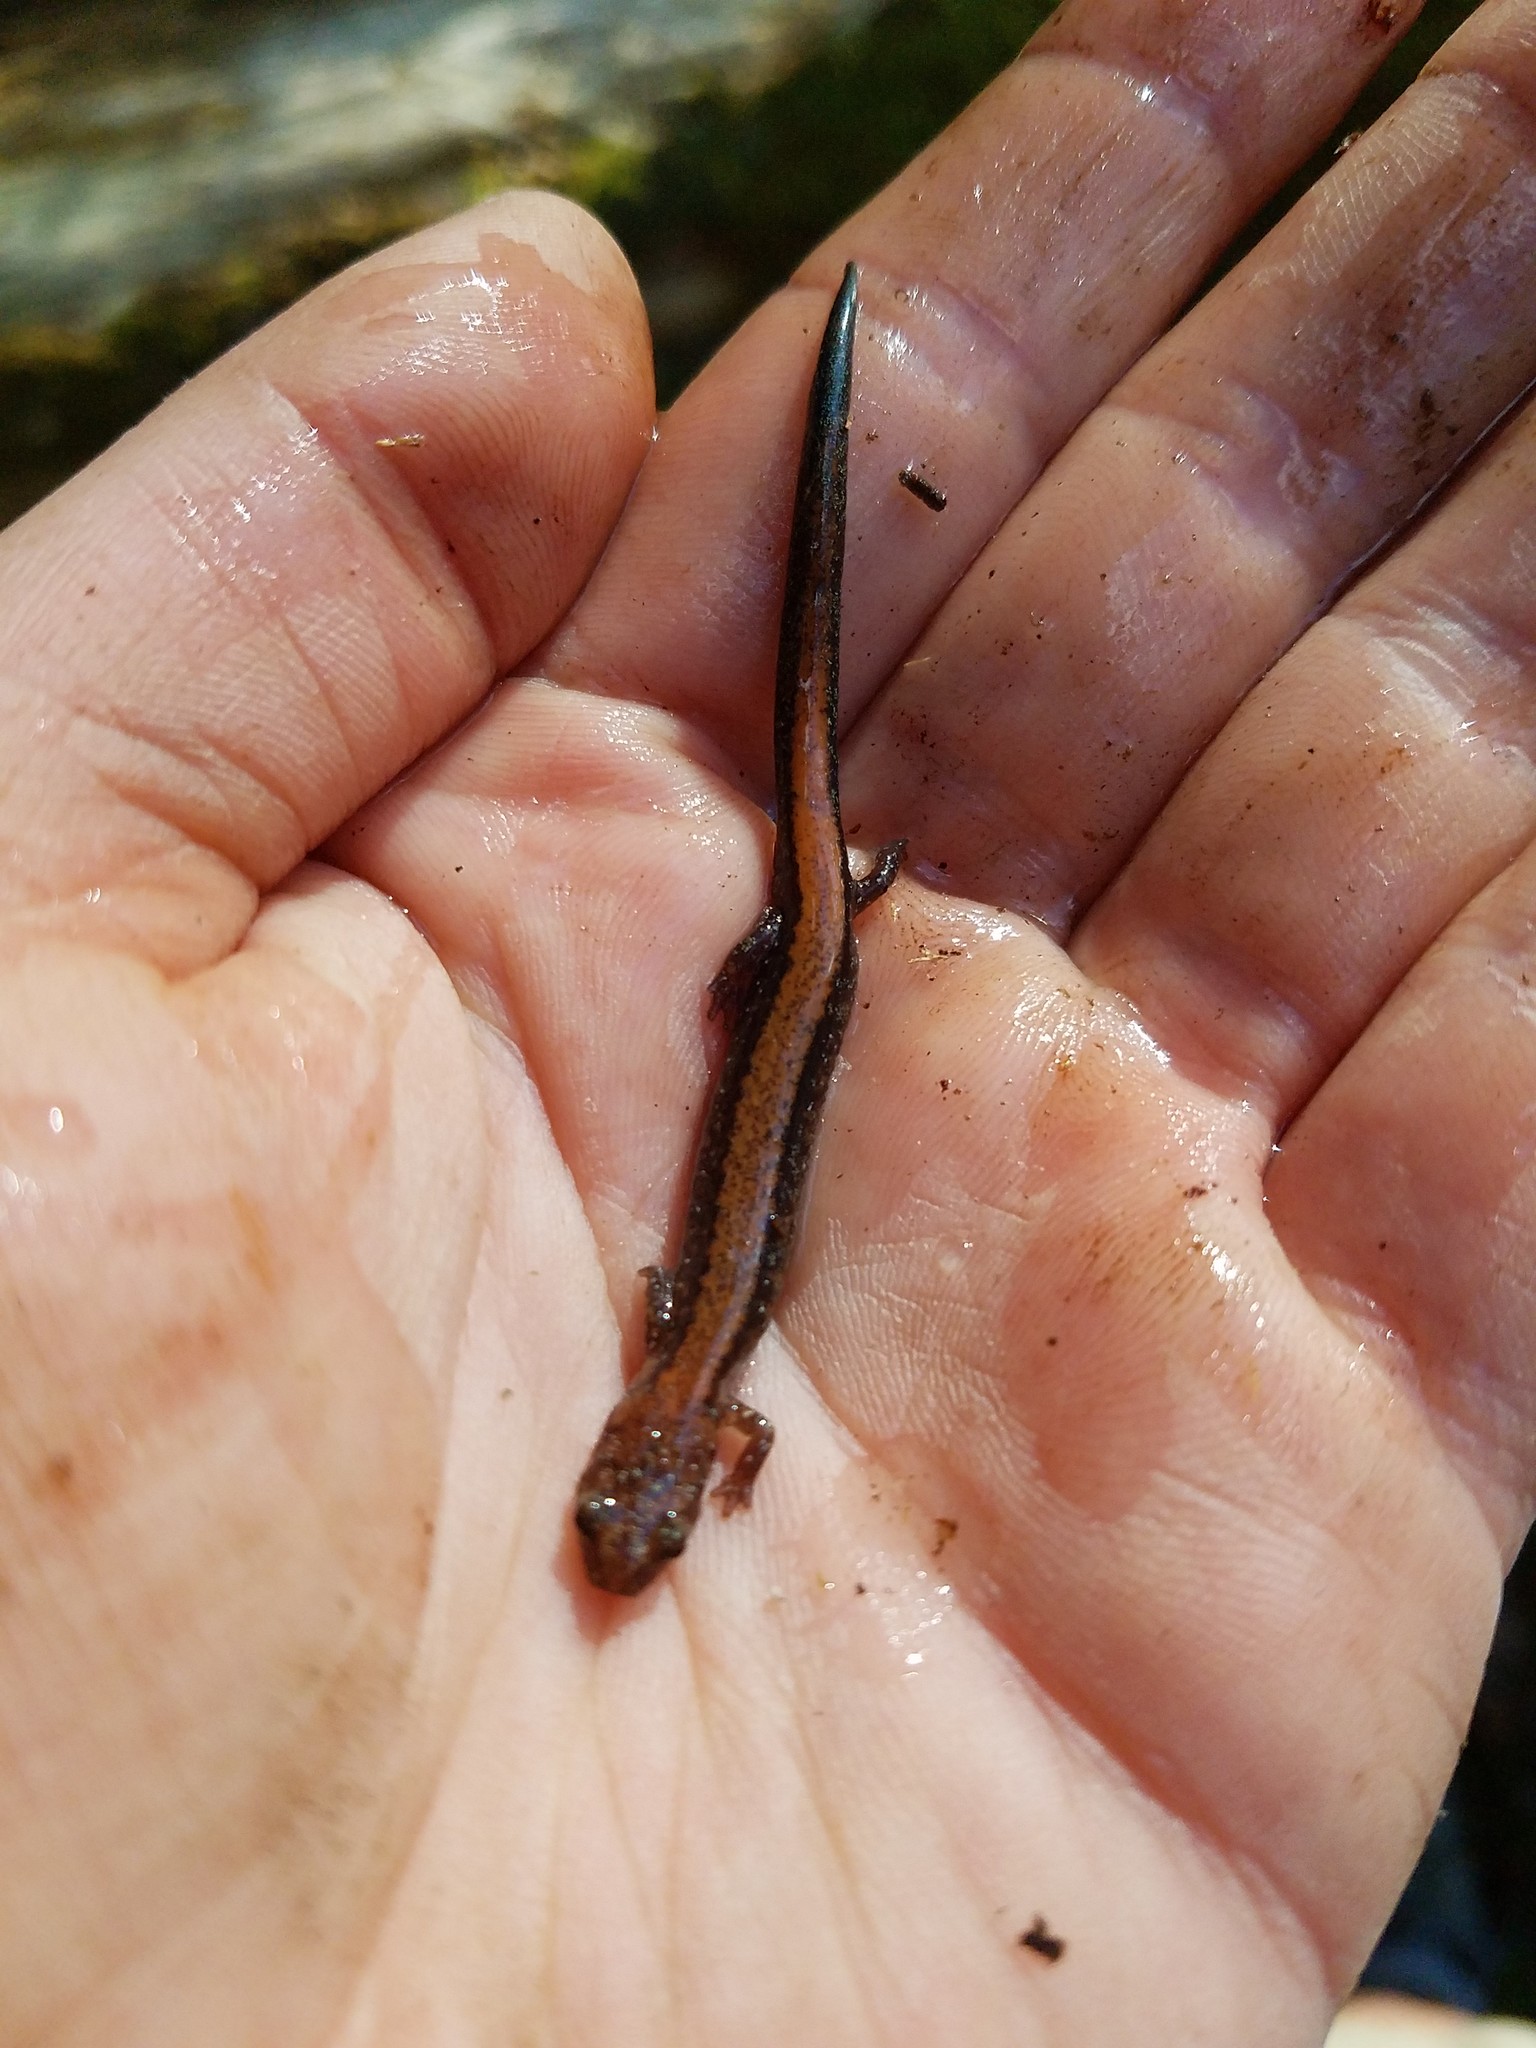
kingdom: Animalia
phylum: Chordata
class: Amphibia
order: Caudata
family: Plethodontidae
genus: Plethodon
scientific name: Plethodon cinereus
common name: Redback salamander
